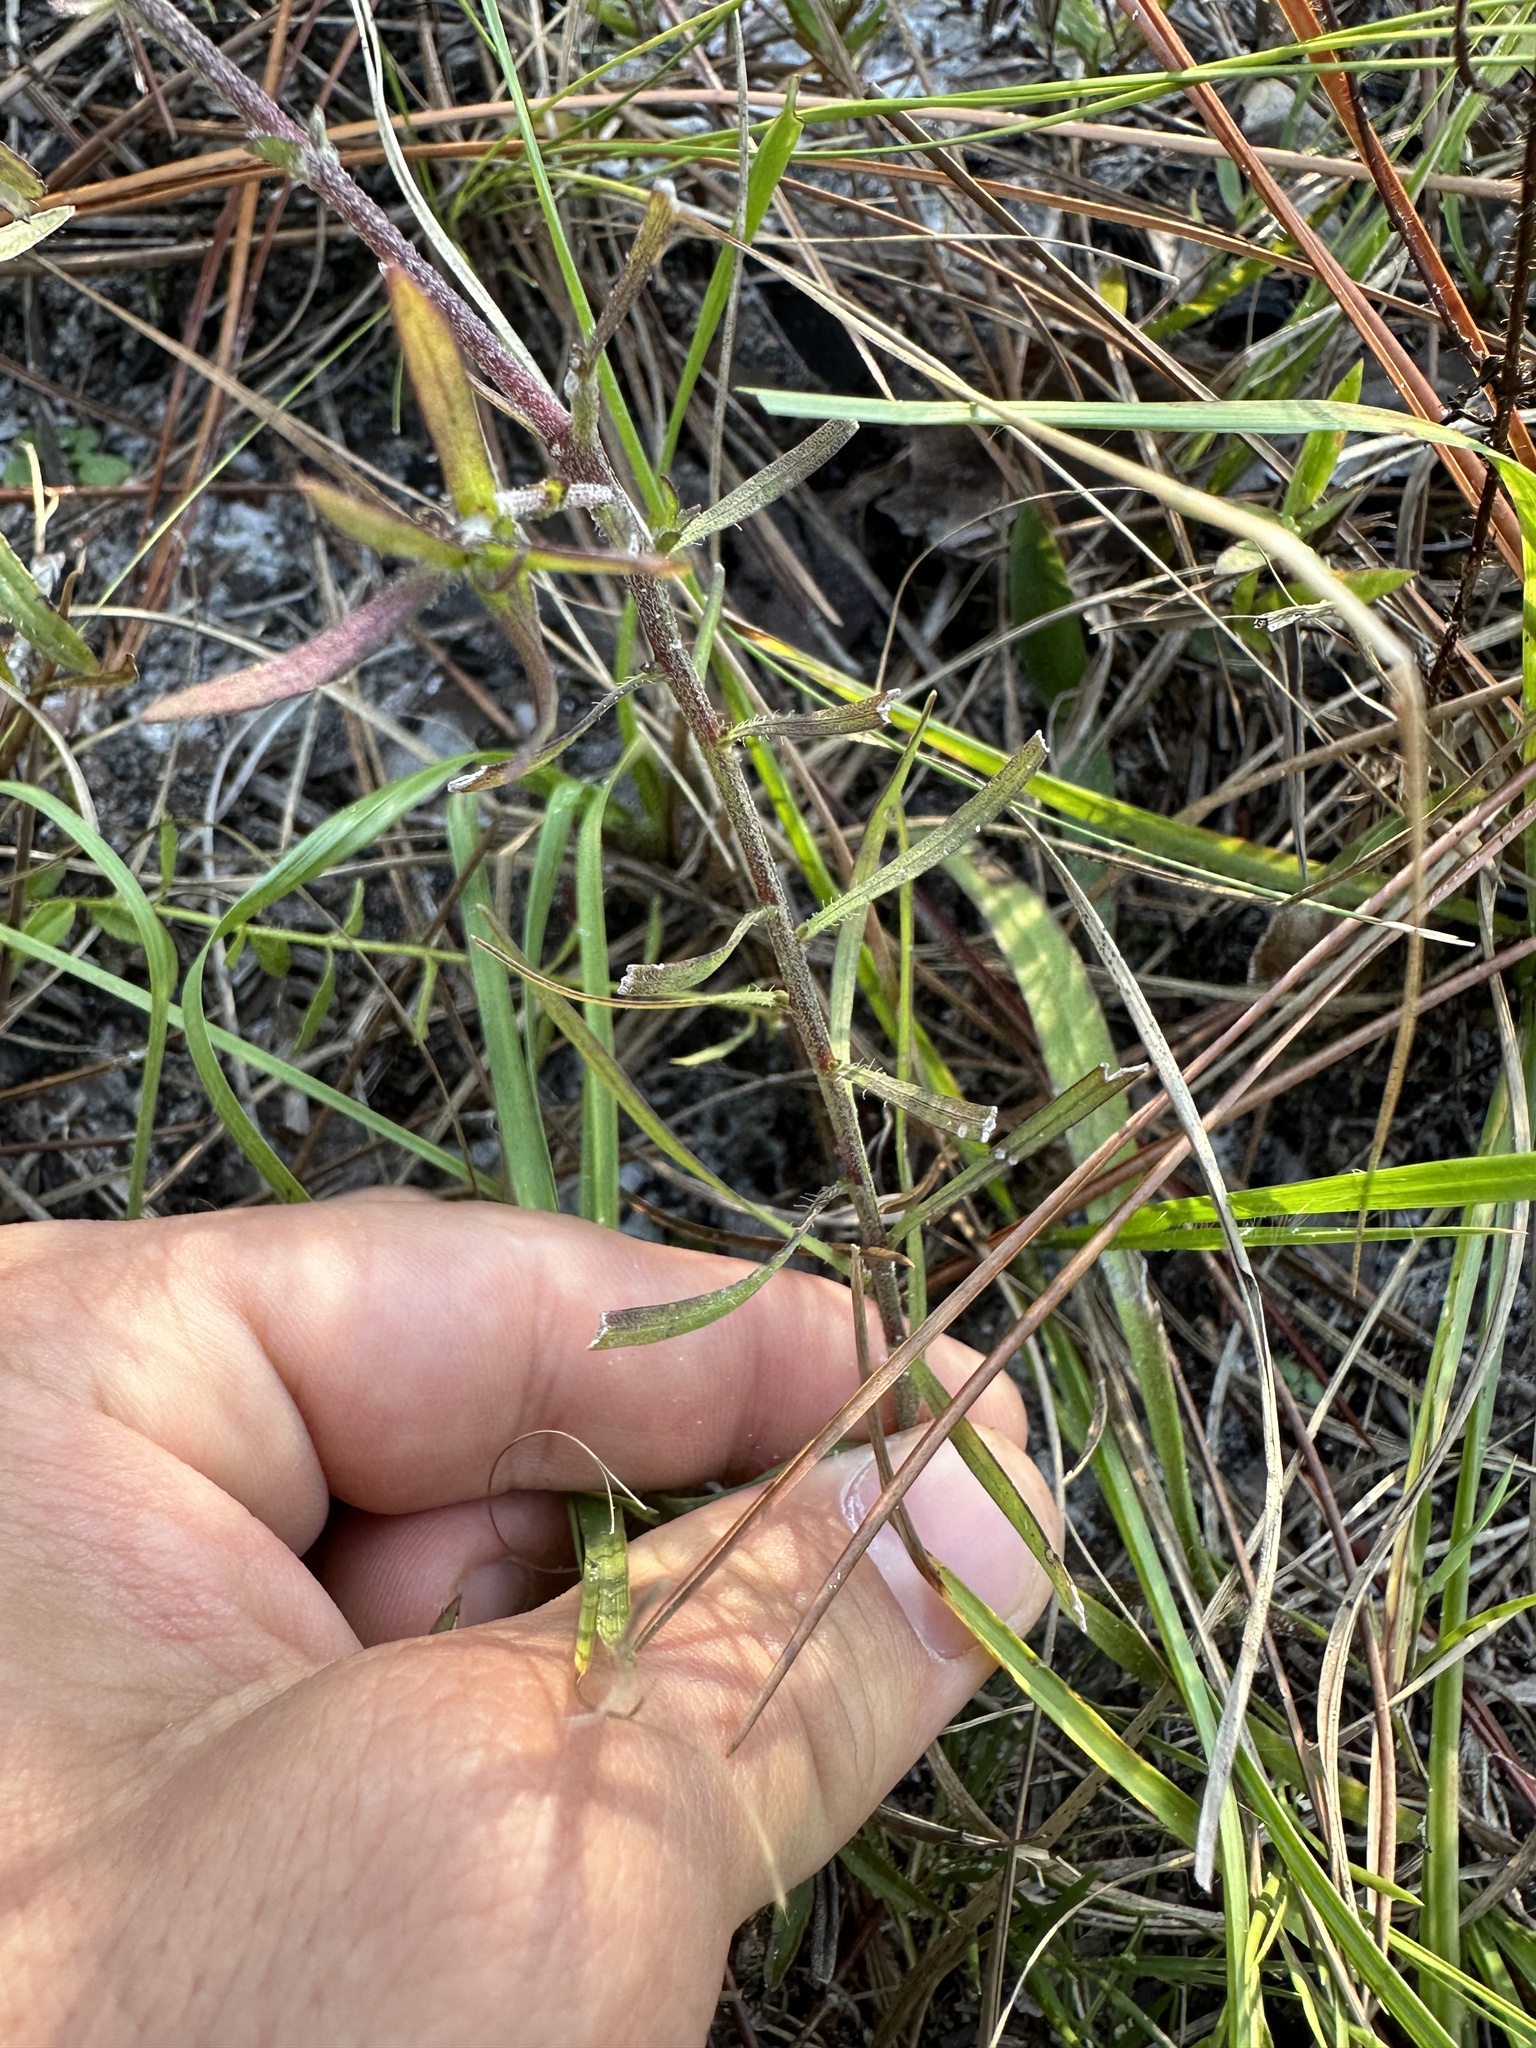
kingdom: Plantae
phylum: Tracheophyta
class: Magnoliopsida
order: Asterales
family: Asteraceae
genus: Liatris
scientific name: Liatris gracilis
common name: Slender gayfeather
